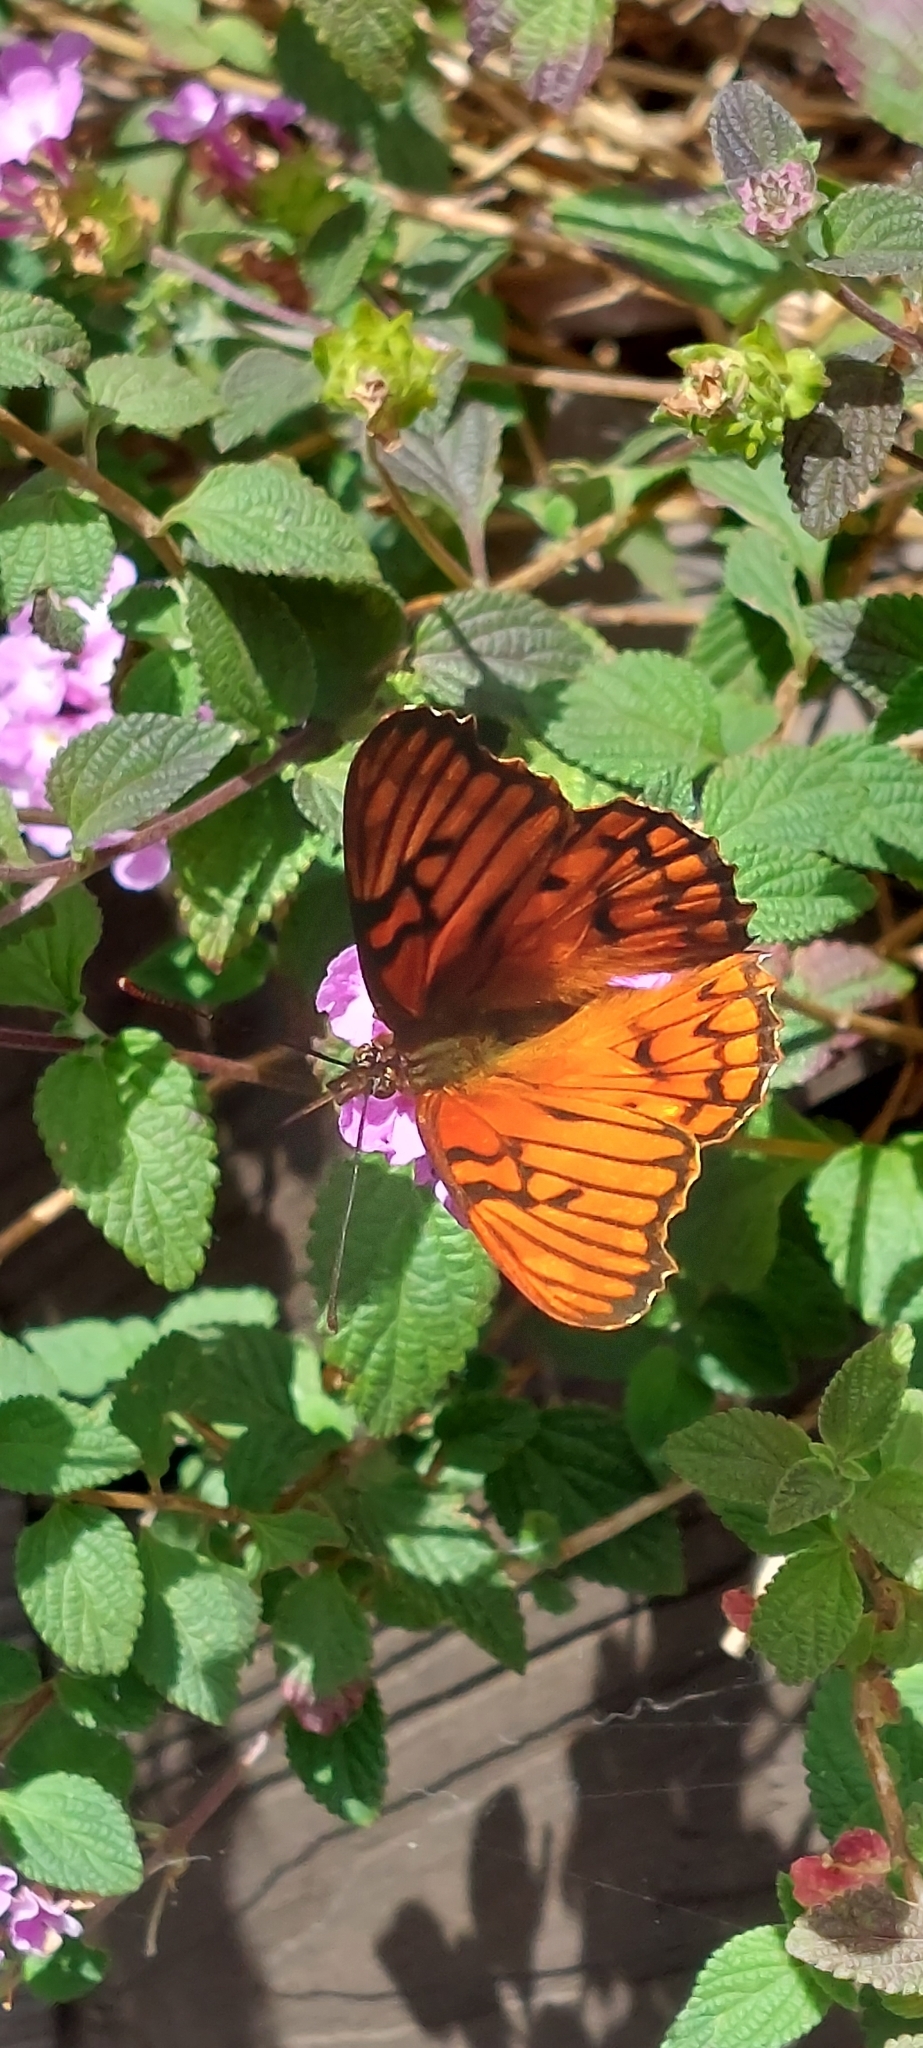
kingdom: Animalia
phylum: Arthropoda
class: Insecta
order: Lepidoptera
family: Nymphalidae
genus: Dione
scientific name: Dione glycera
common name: Andean silverspot
